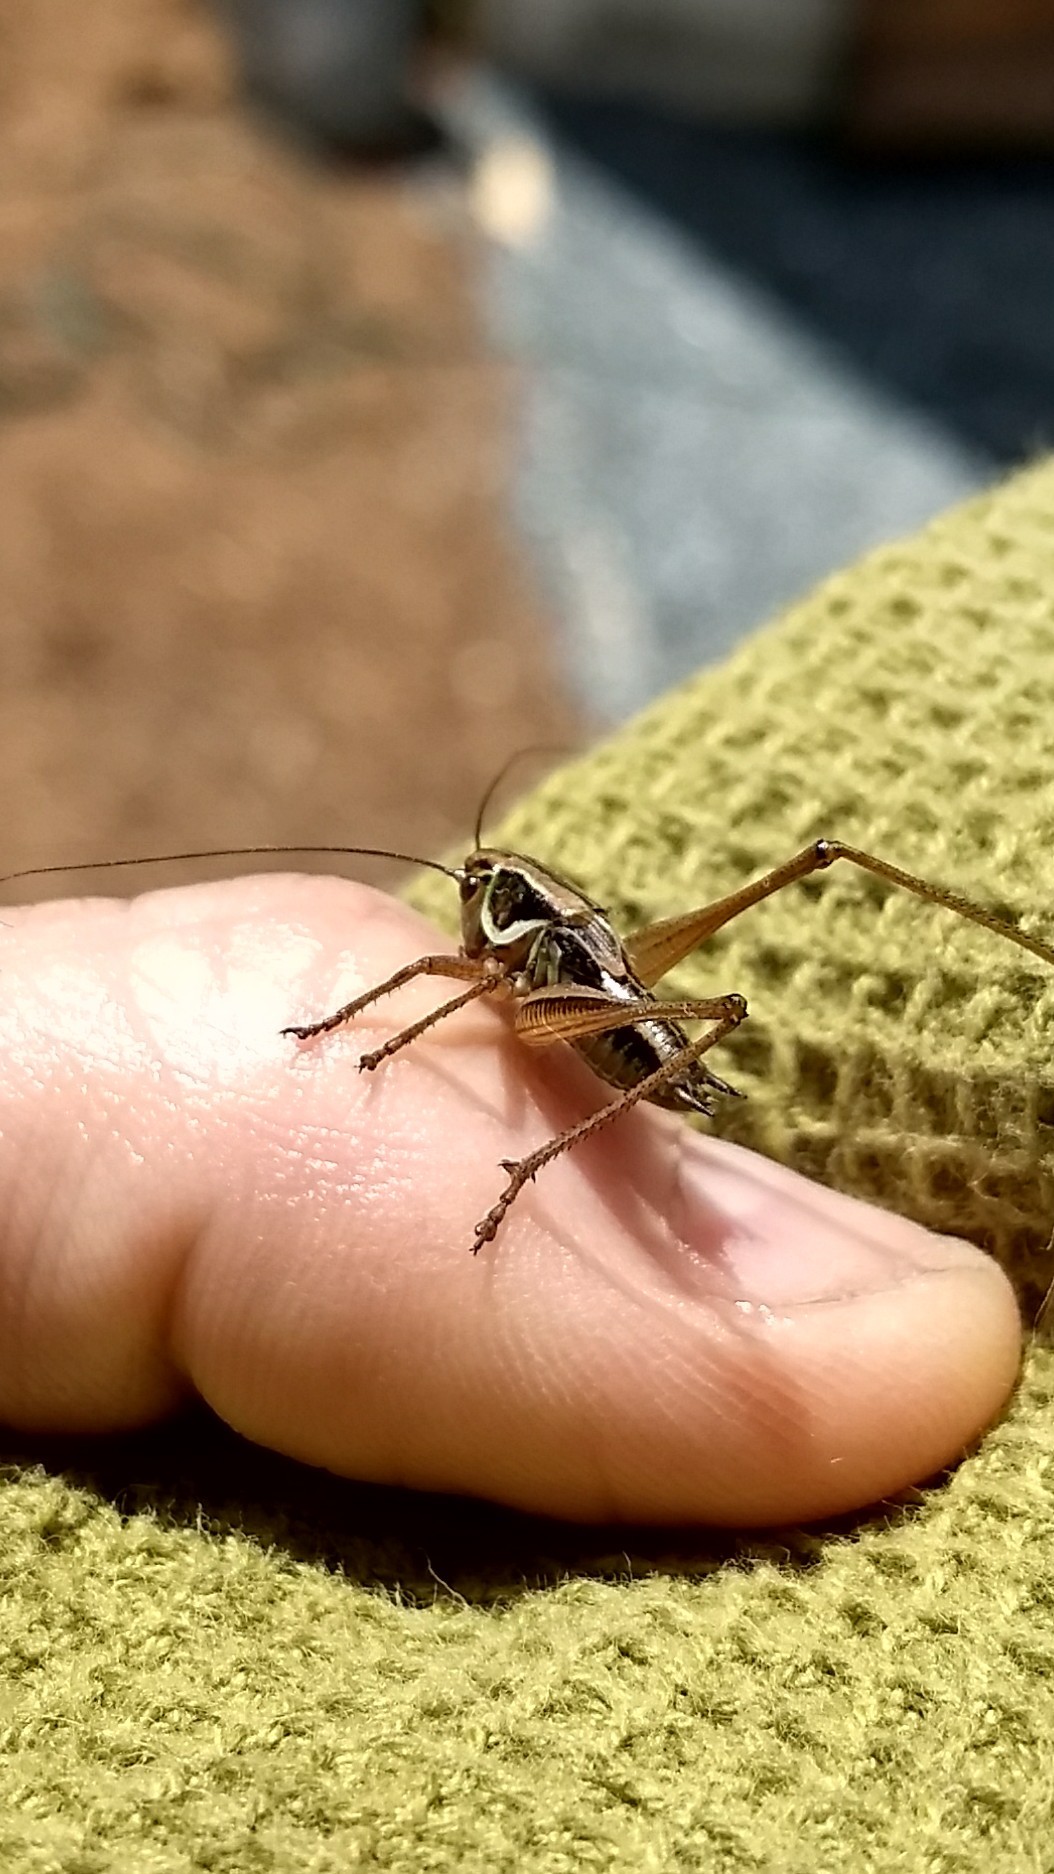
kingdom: Animalia
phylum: Arthropoda
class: Insecta
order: Orthoptera
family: Tettigoniidae
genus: Roeseliana
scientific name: Roeseliana roeselii
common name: Roesel's bush cricket
